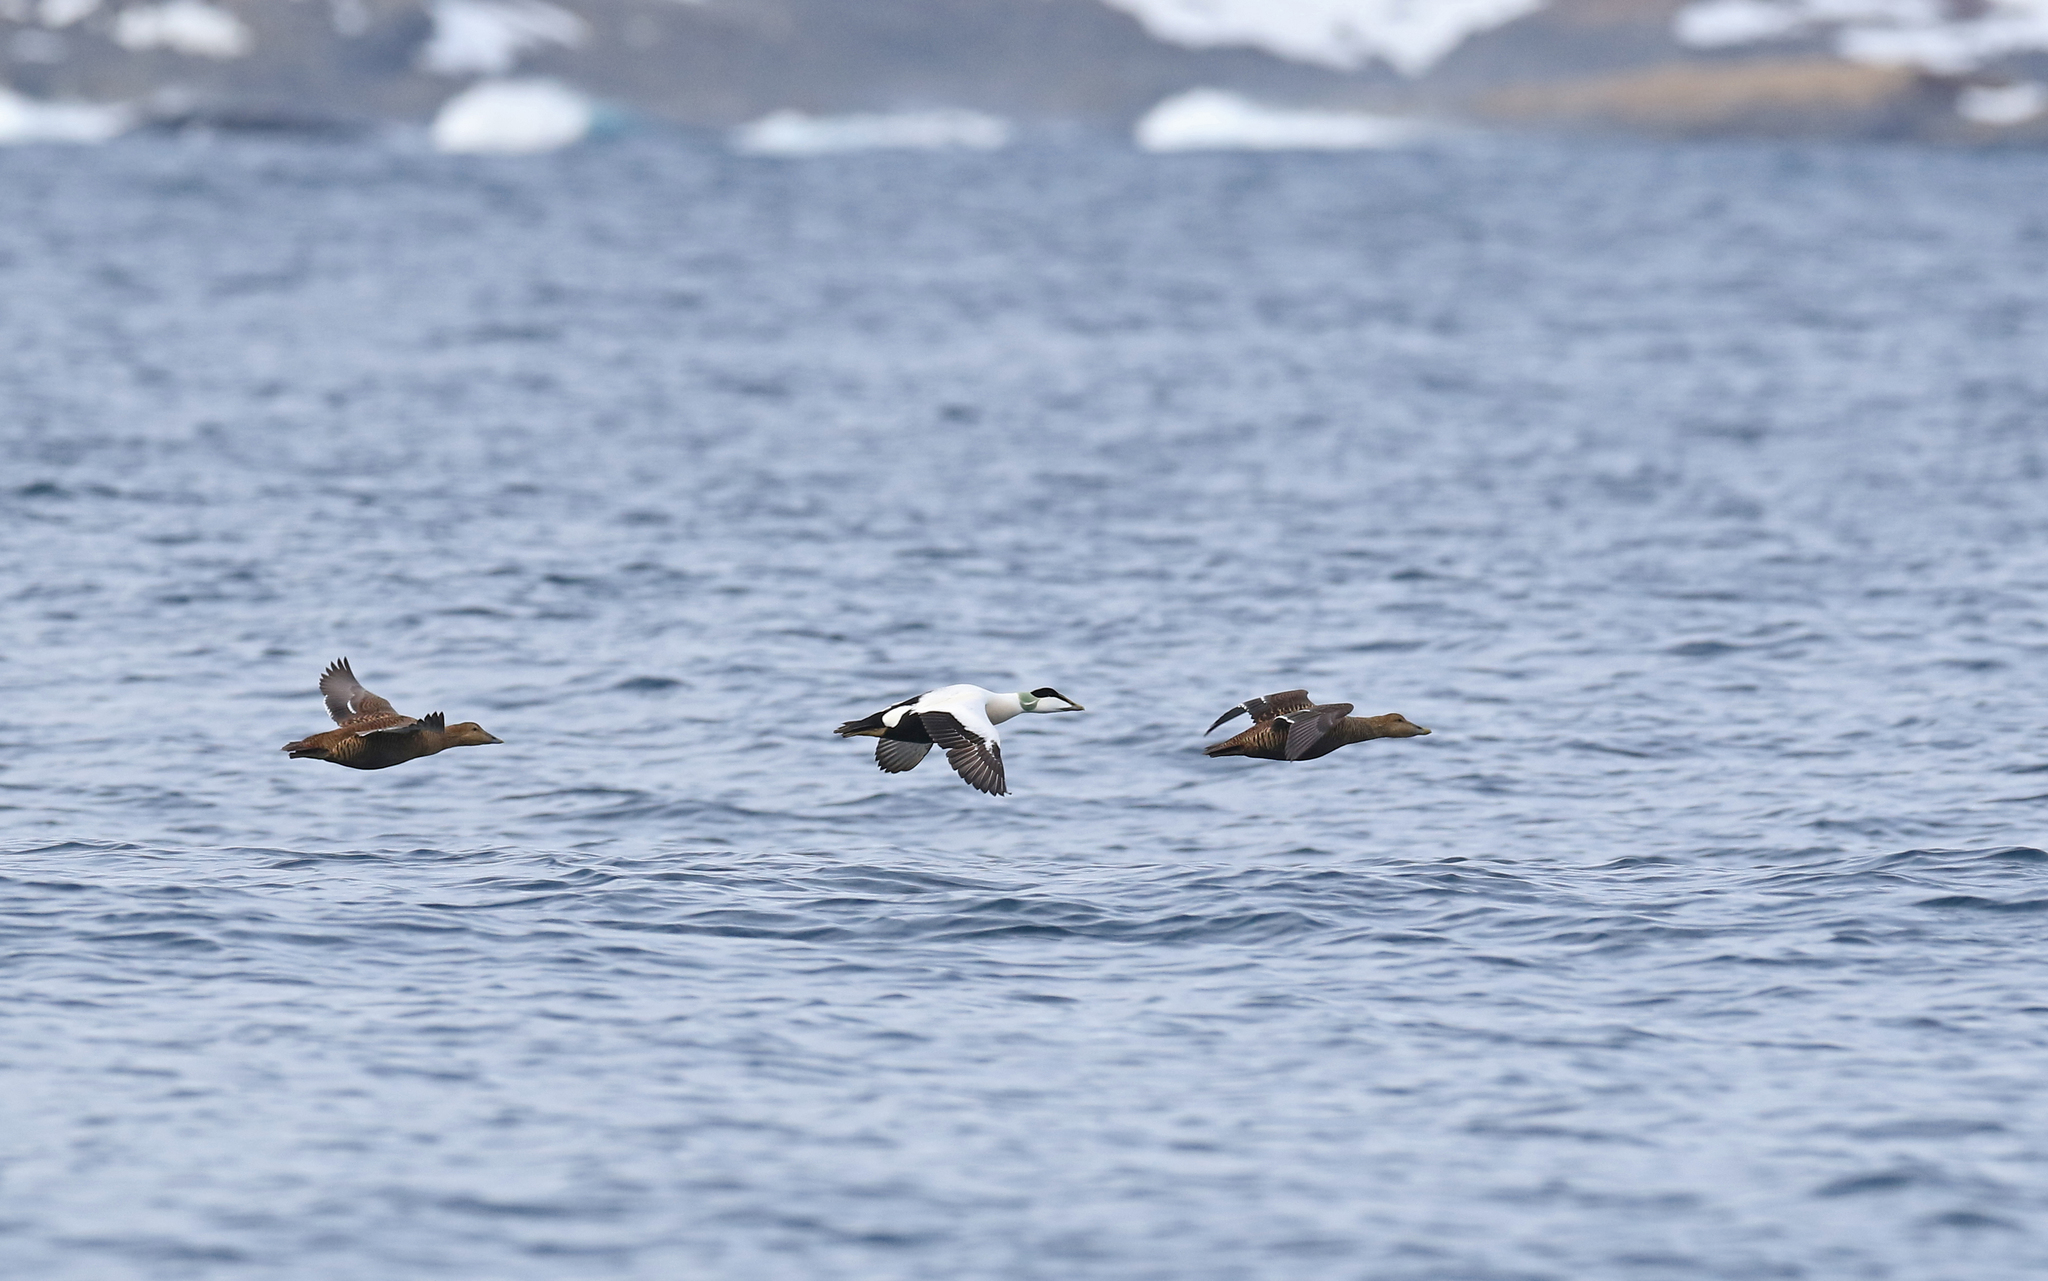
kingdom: Animalia
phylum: Chordata
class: Aves
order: Anseriformes
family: Anatidae
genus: Somateria
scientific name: Somateria mollissima
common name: Common eider
